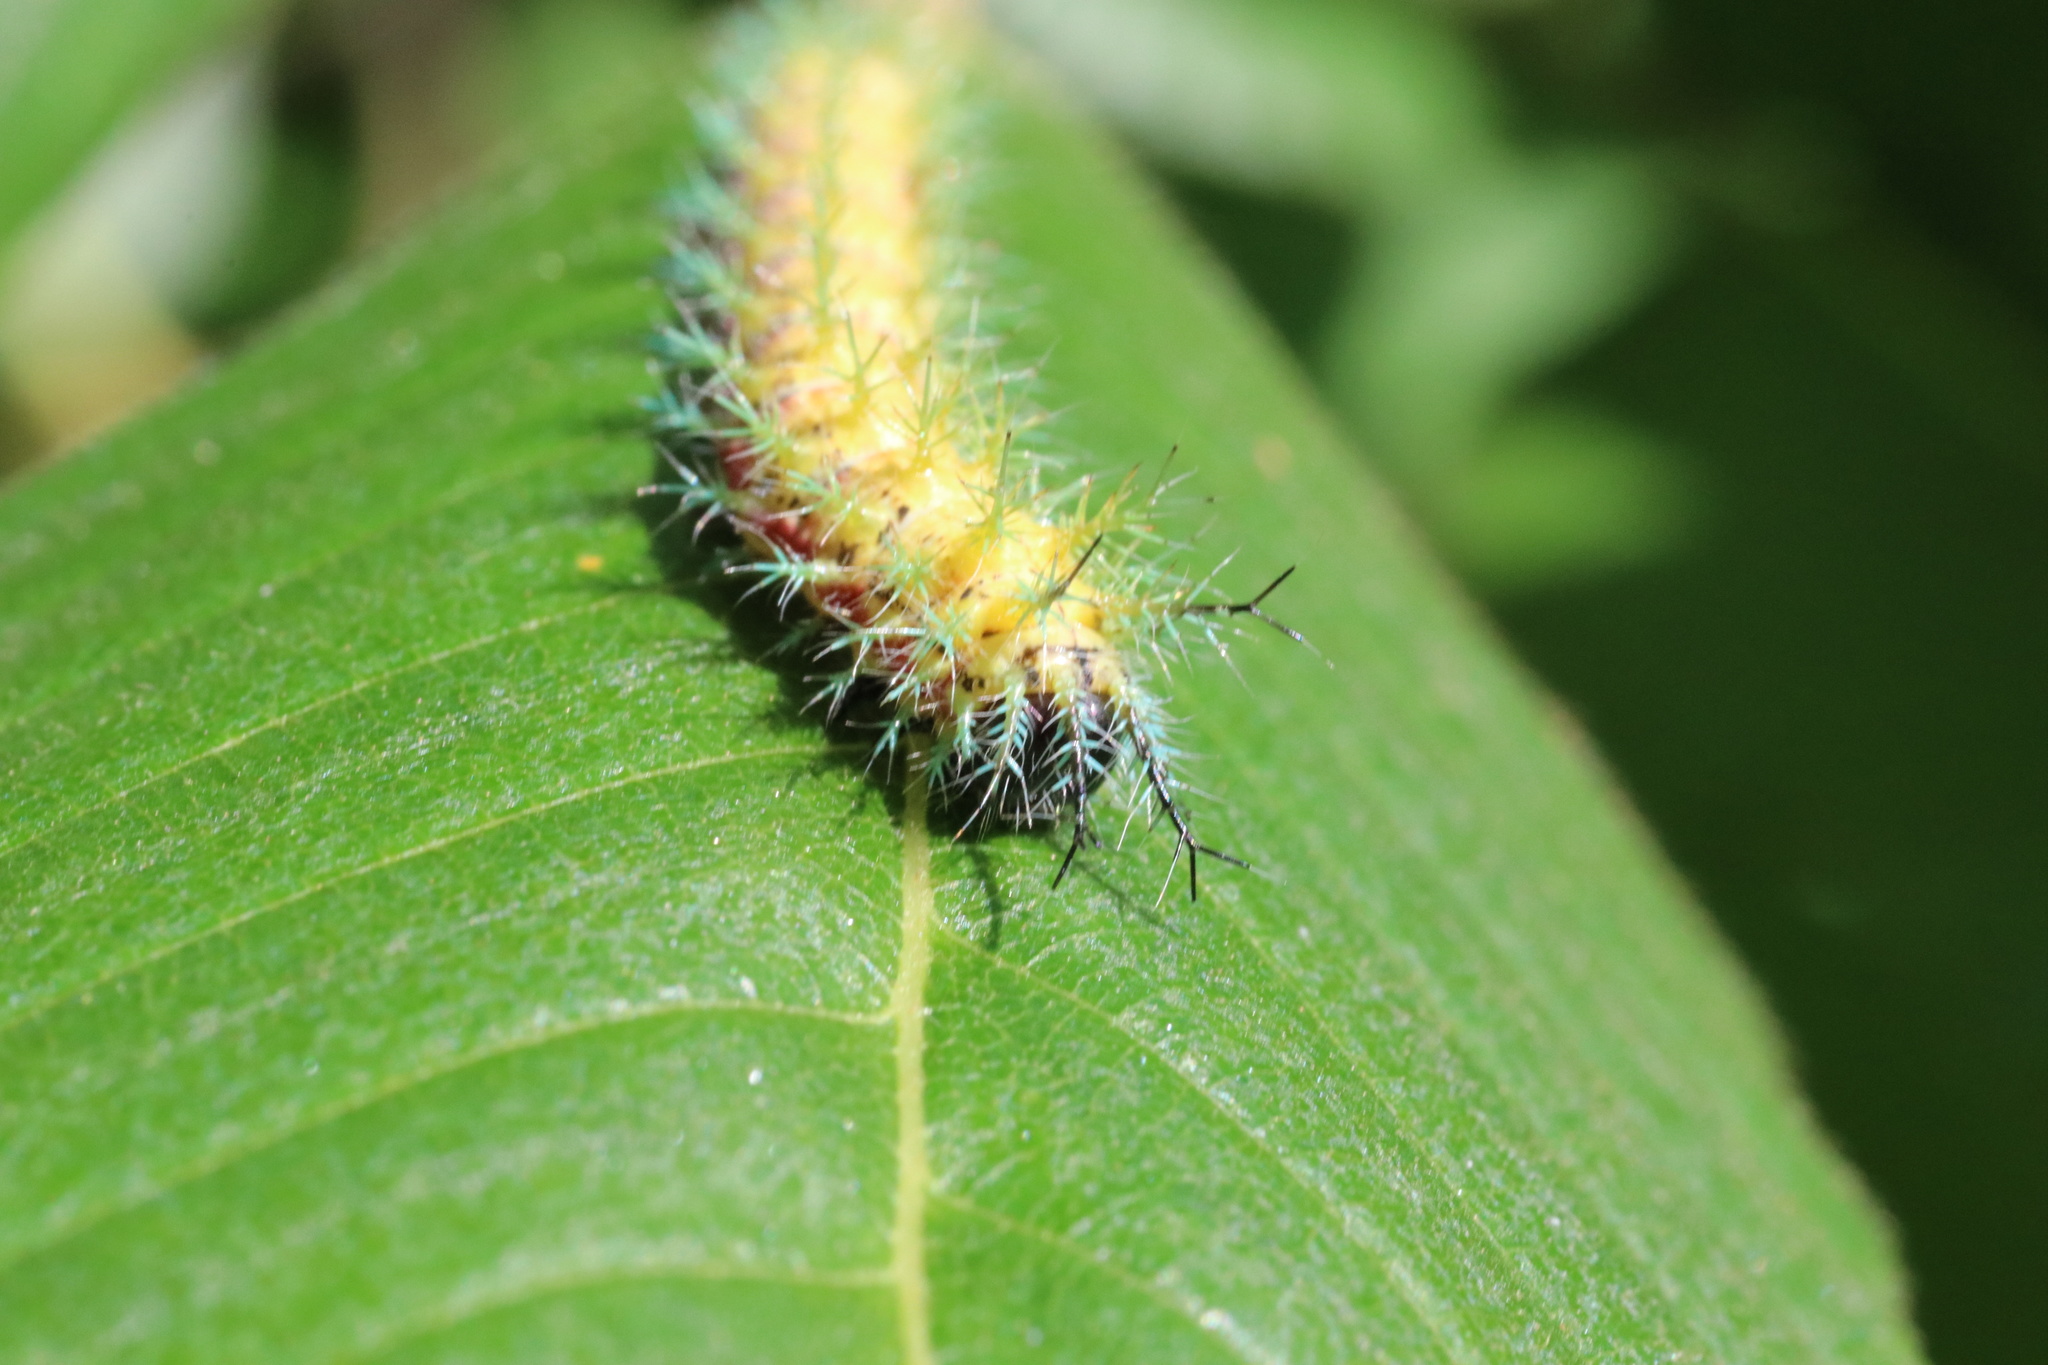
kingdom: Animalia
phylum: Arthropoda
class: Insecta
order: Lepidoptera
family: Saturniidae
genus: Ormiscodes
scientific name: Ormiscodes amphinome
